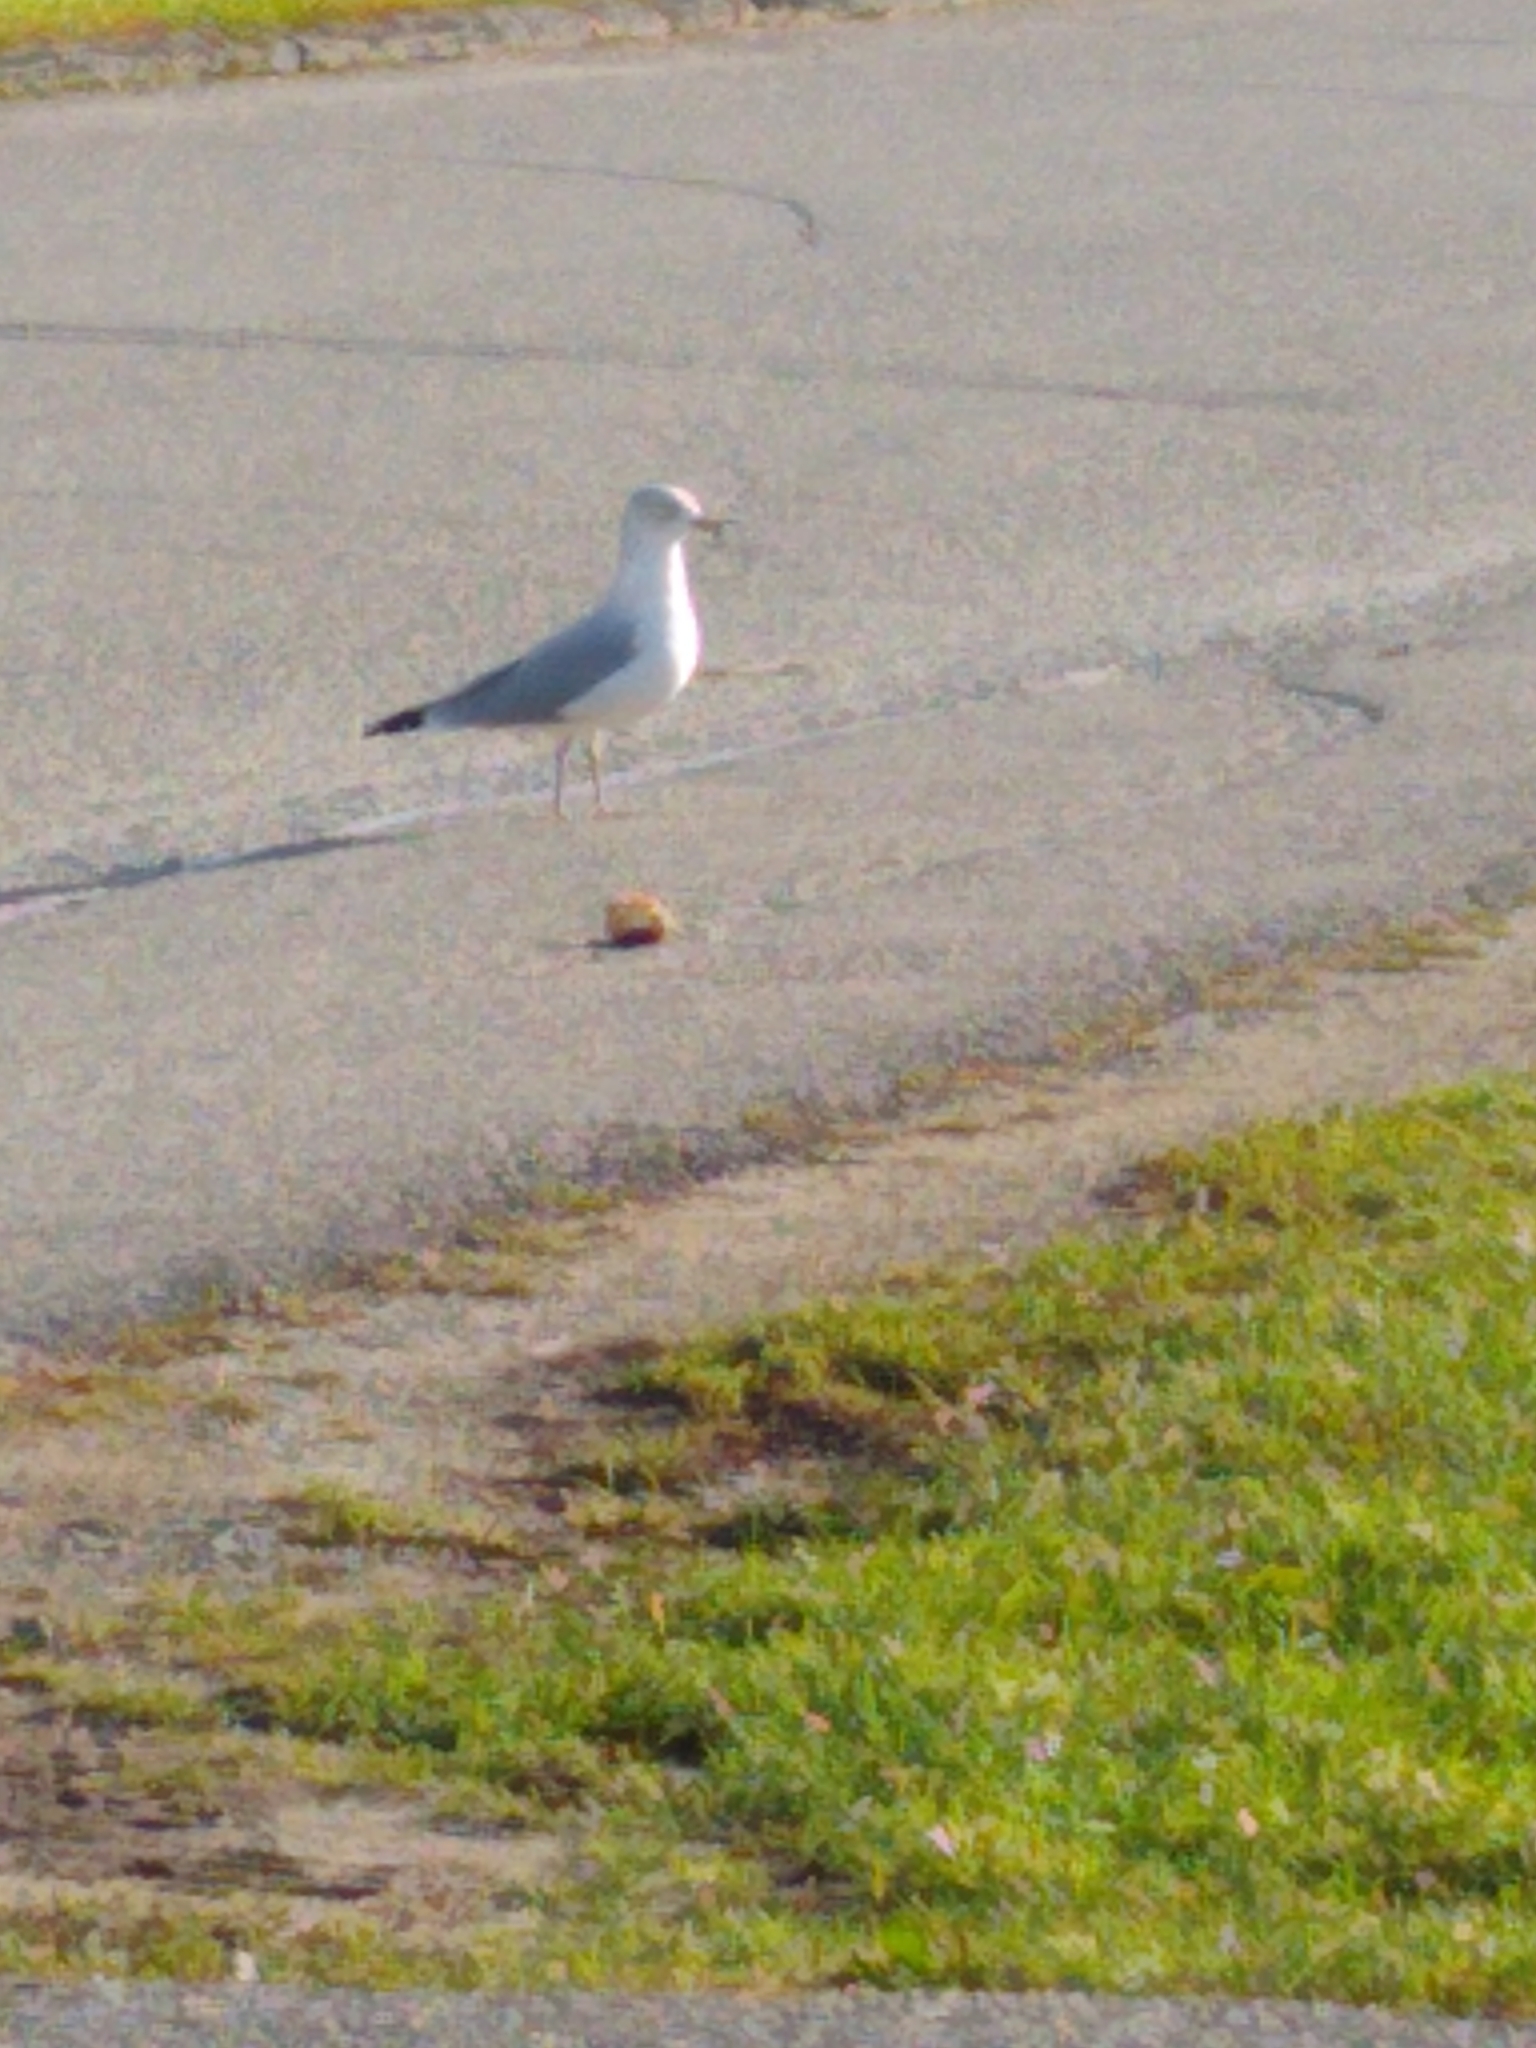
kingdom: Animalia
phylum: Chordata
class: Aves
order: Charadriiformes
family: Laridae
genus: Larus
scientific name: Larus delawarensis
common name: Ring-billed gull
